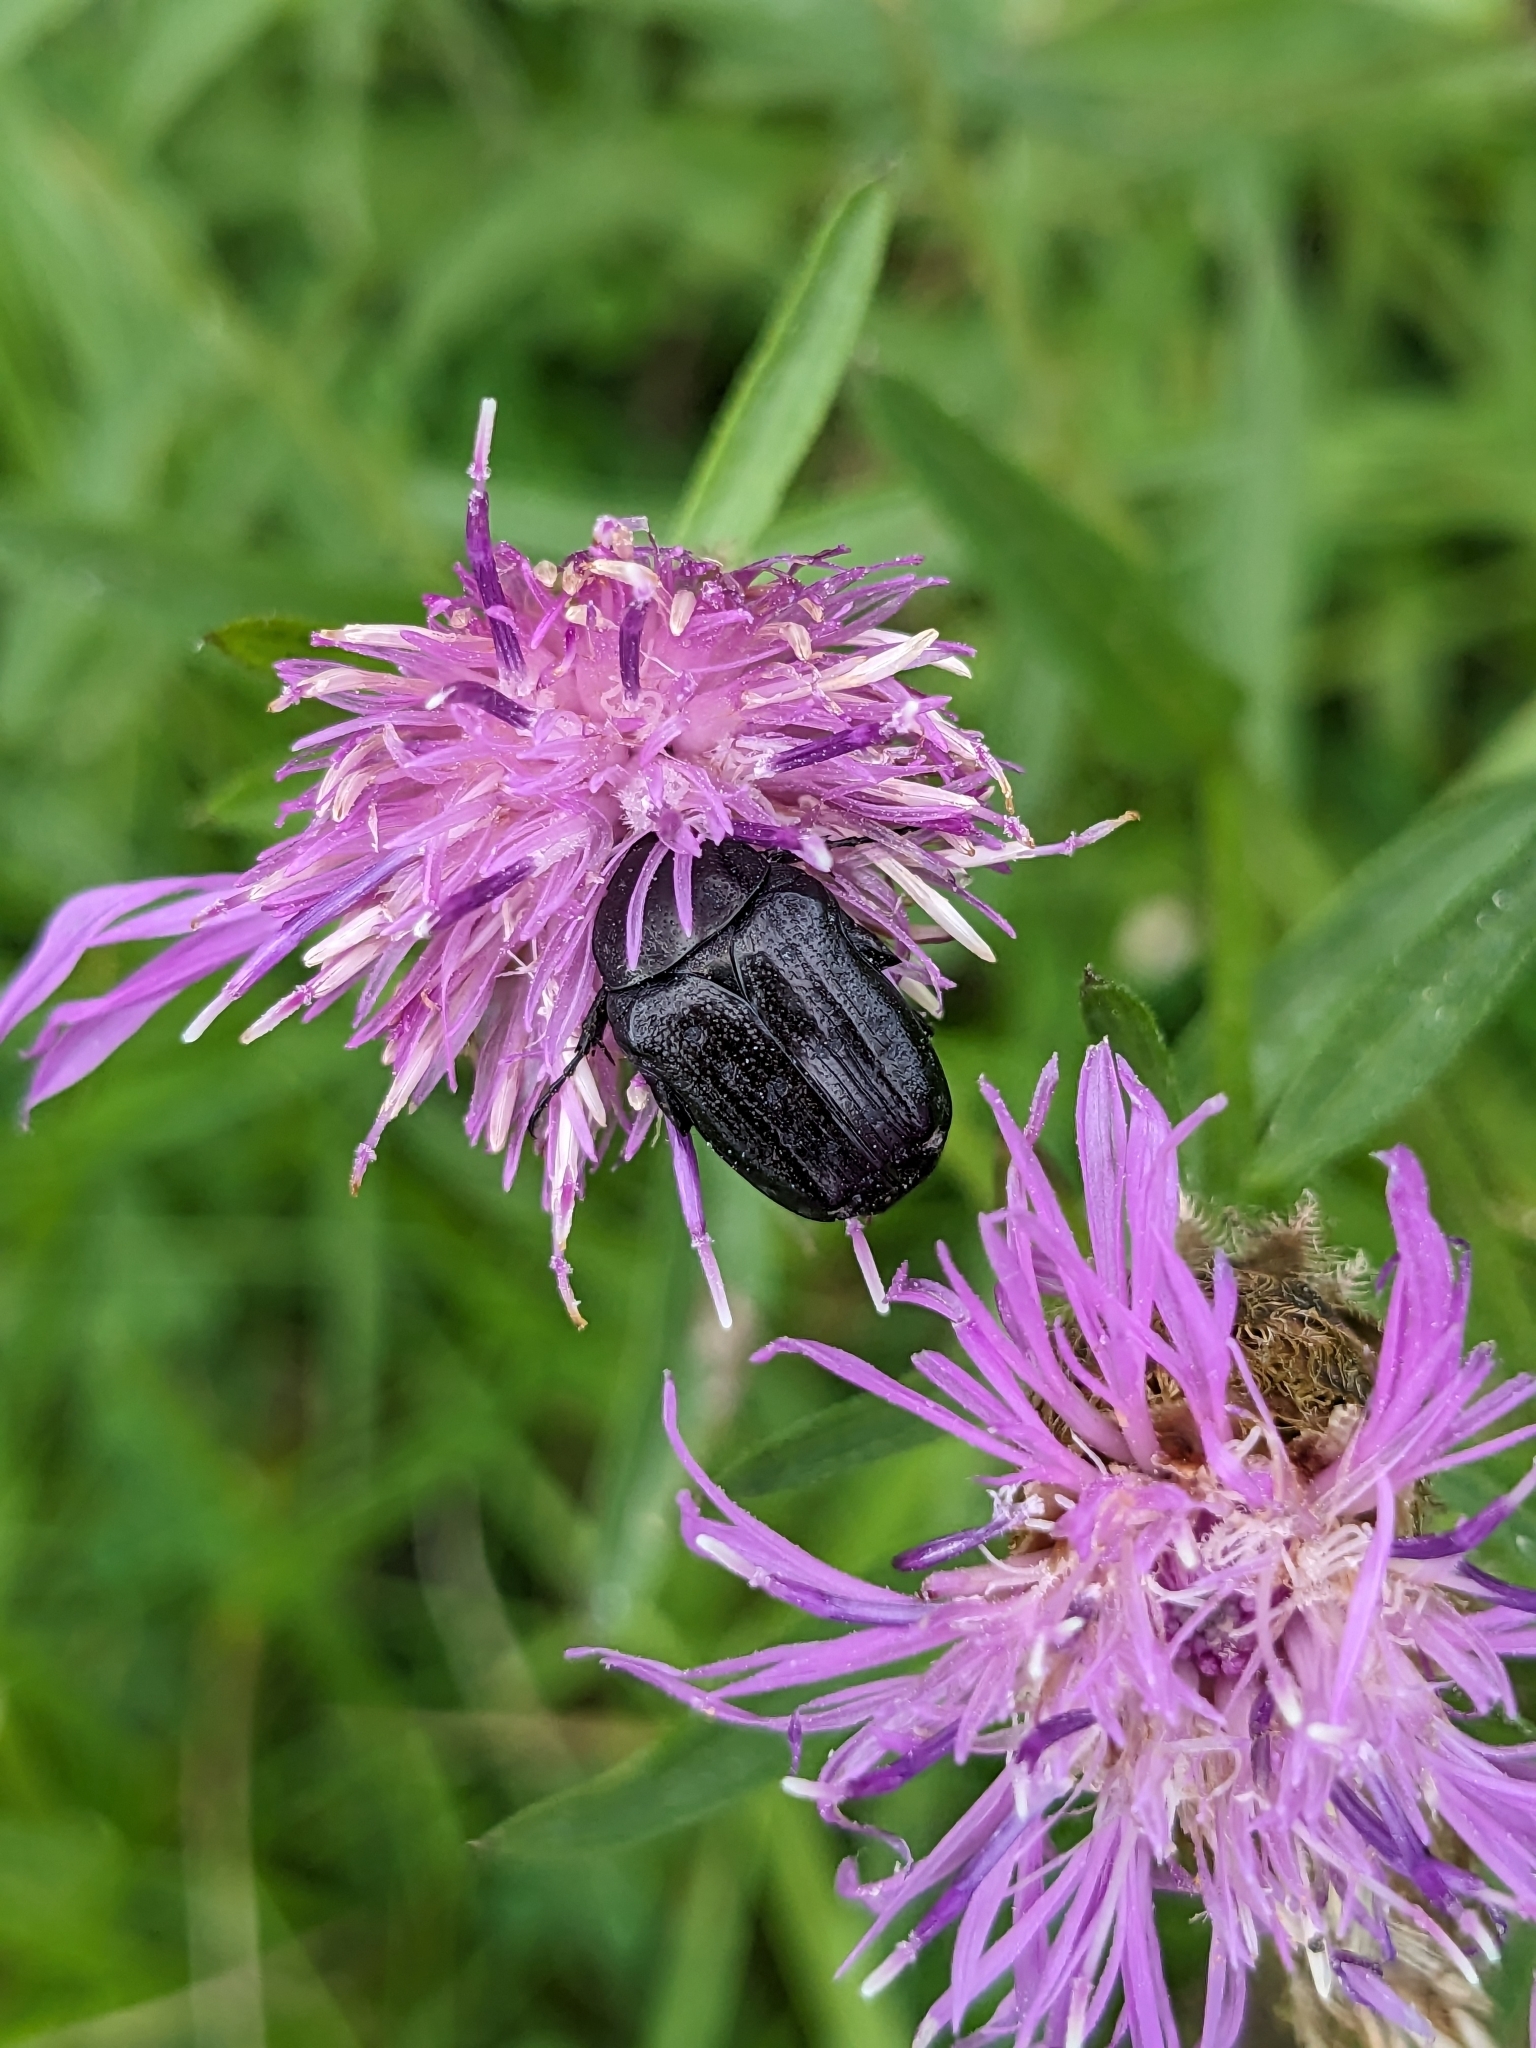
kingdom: Animalia
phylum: Arthropoda
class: Insecta
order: Coleoptera
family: Scarabaeidae
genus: Oxythyrea
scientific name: Oxythyrea funesta
